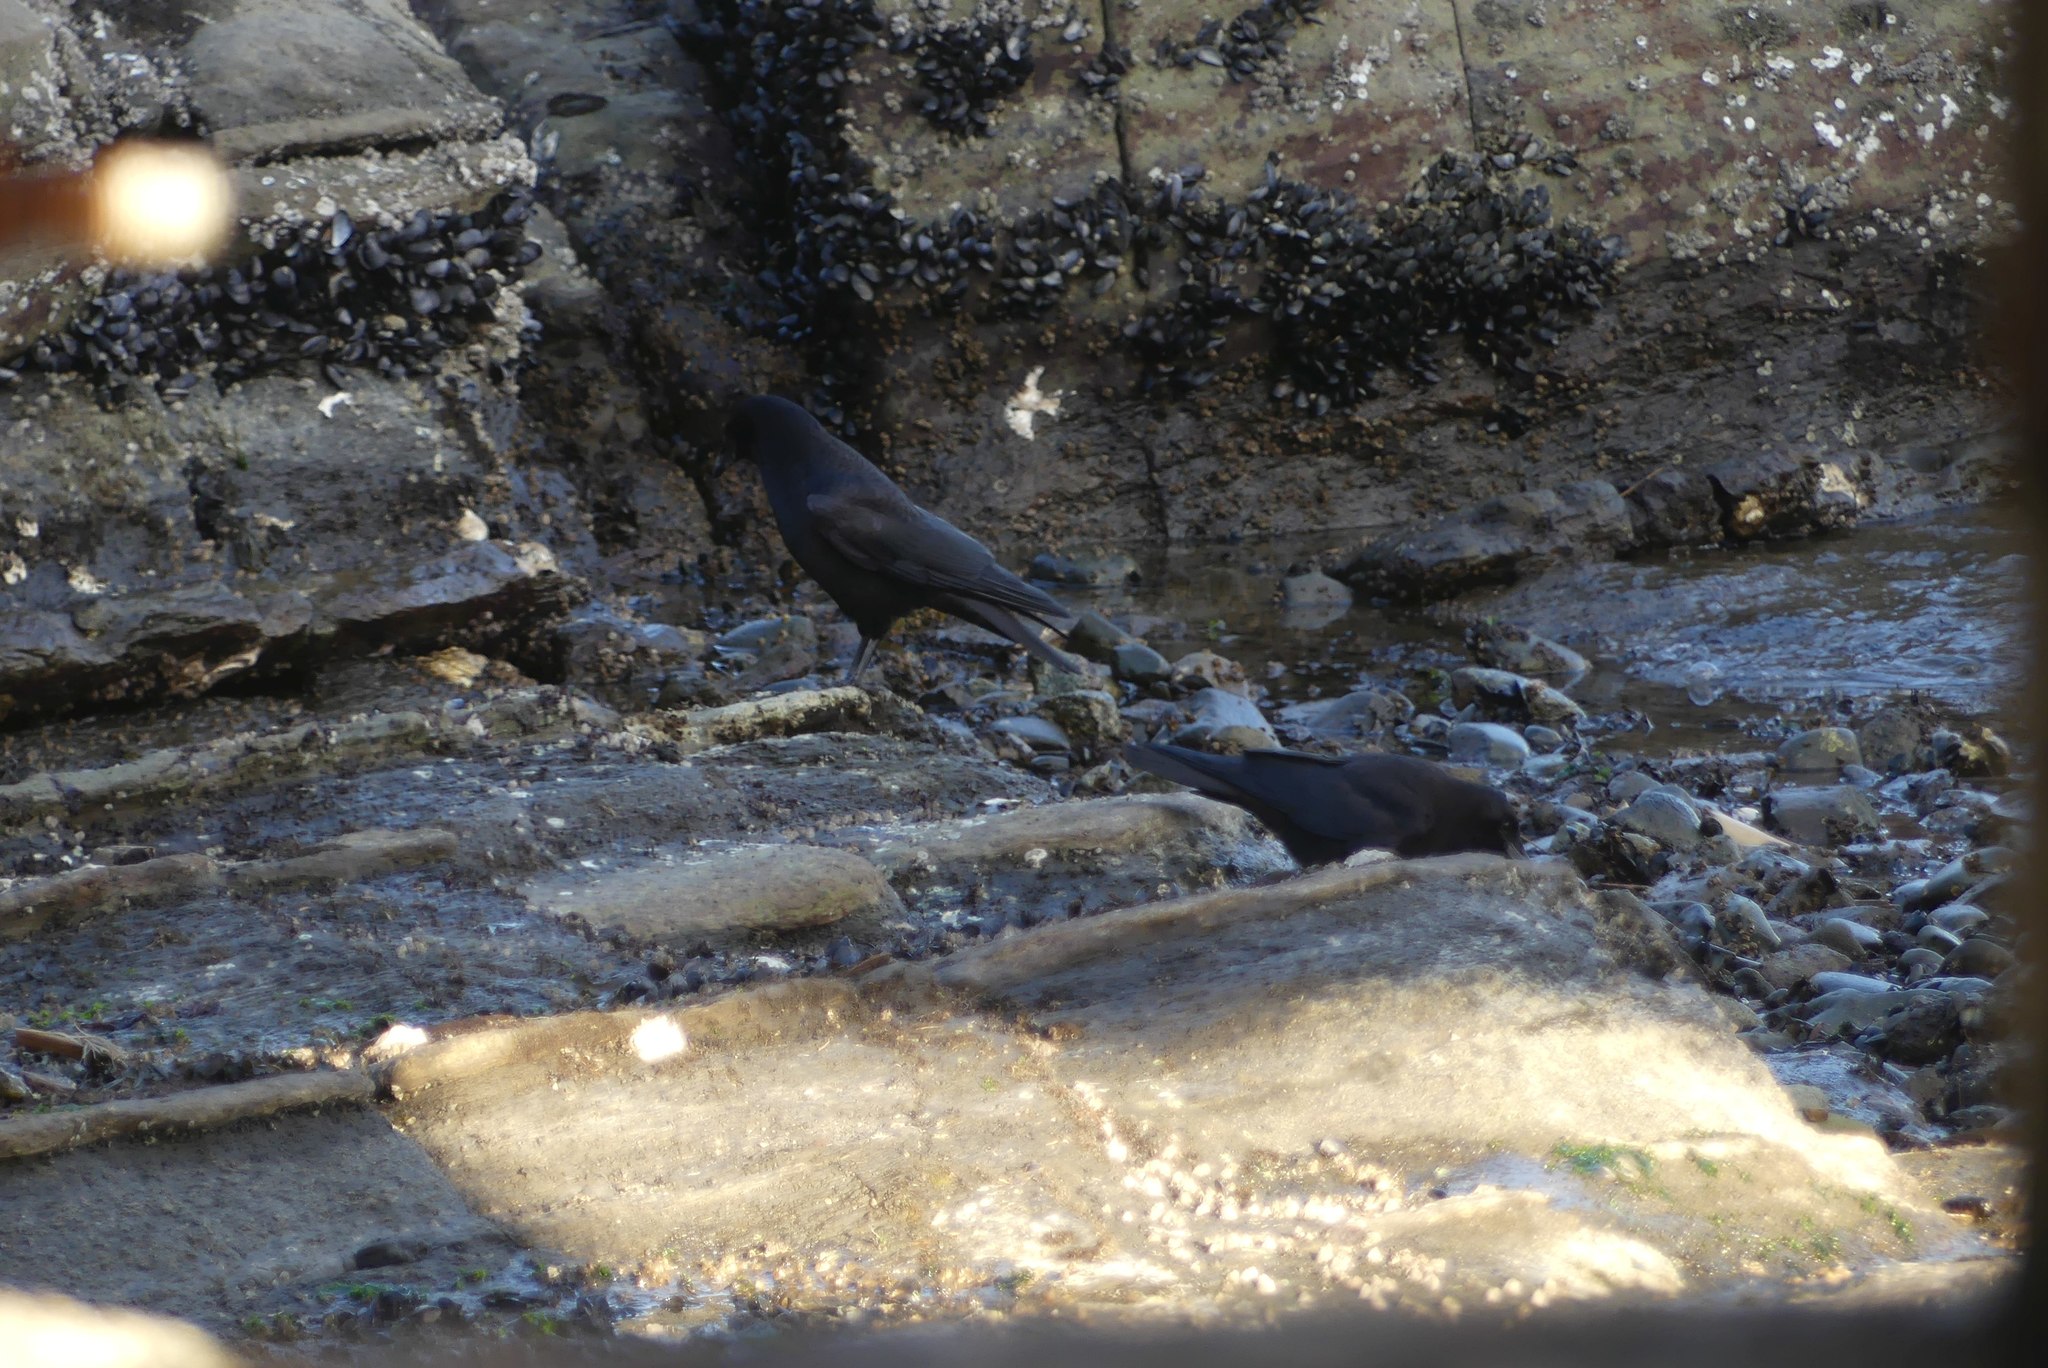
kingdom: Animalia
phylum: Chordata
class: Aves
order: Passeriformes
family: Corvidae
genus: Corvus
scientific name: Corvus brachyrhynchos
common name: American crow
